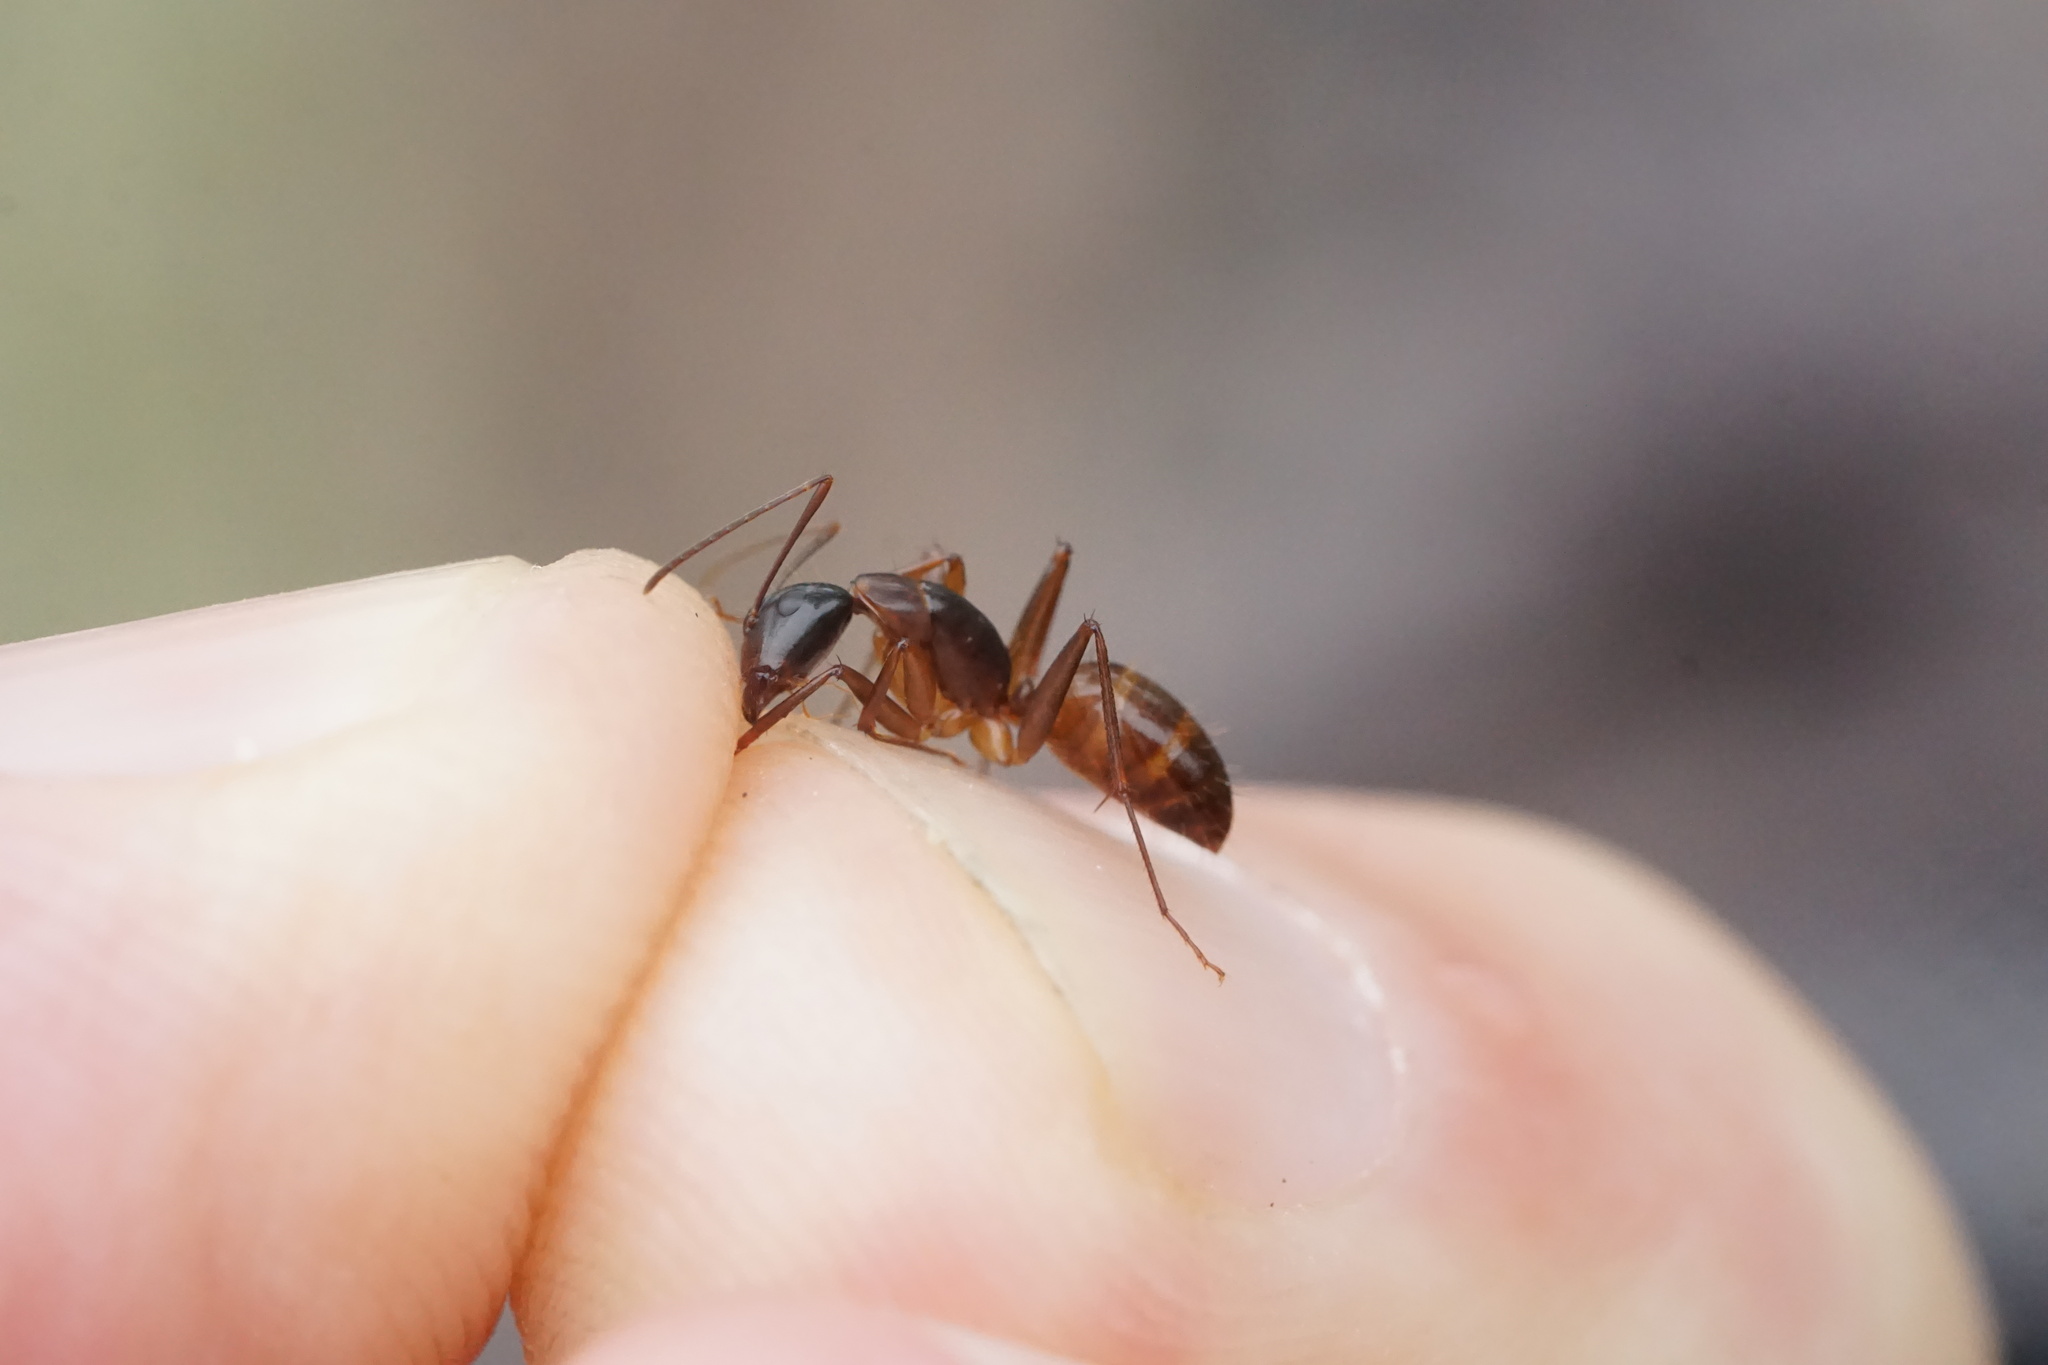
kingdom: Animalia
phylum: Arthropoda
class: Insecta
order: Hymenoptera
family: Formicidae
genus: Camponotus
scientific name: Camponotus americanus
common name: American carpenter ant
